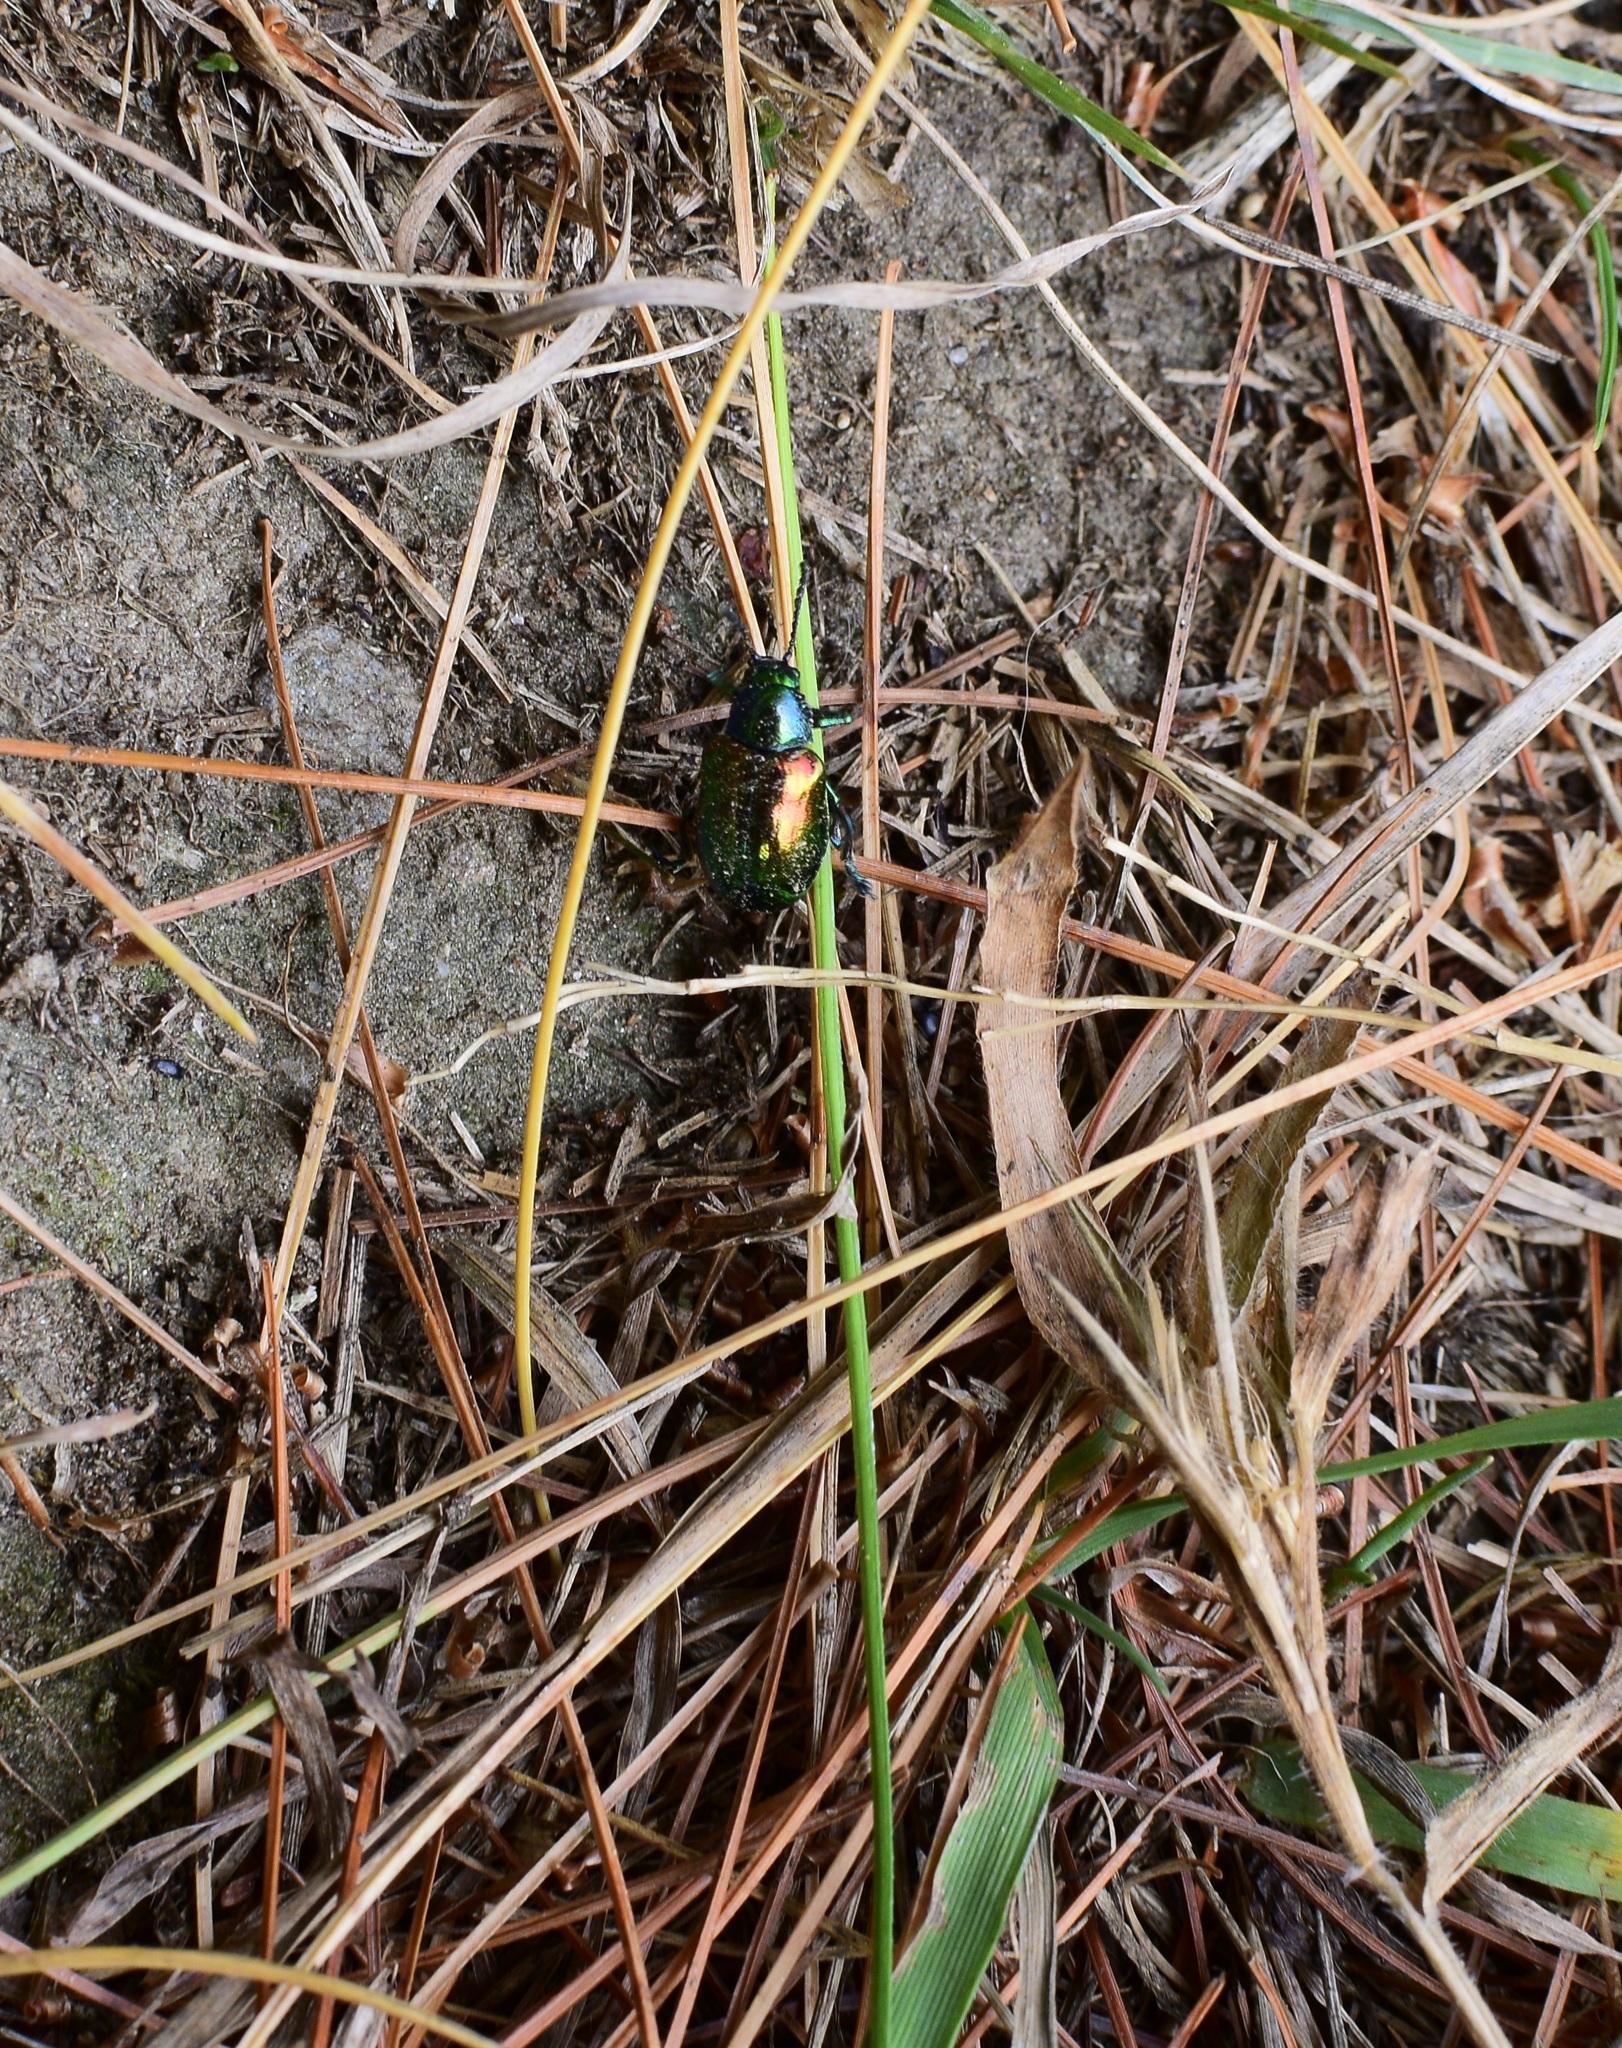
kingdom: Animalia
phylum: Arthropoda
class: Insecta
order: Coleoptera
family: Chrysomelidae
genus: Chrysochus
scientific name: Chrysochus auratus
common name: Dogbane leaf beetle
